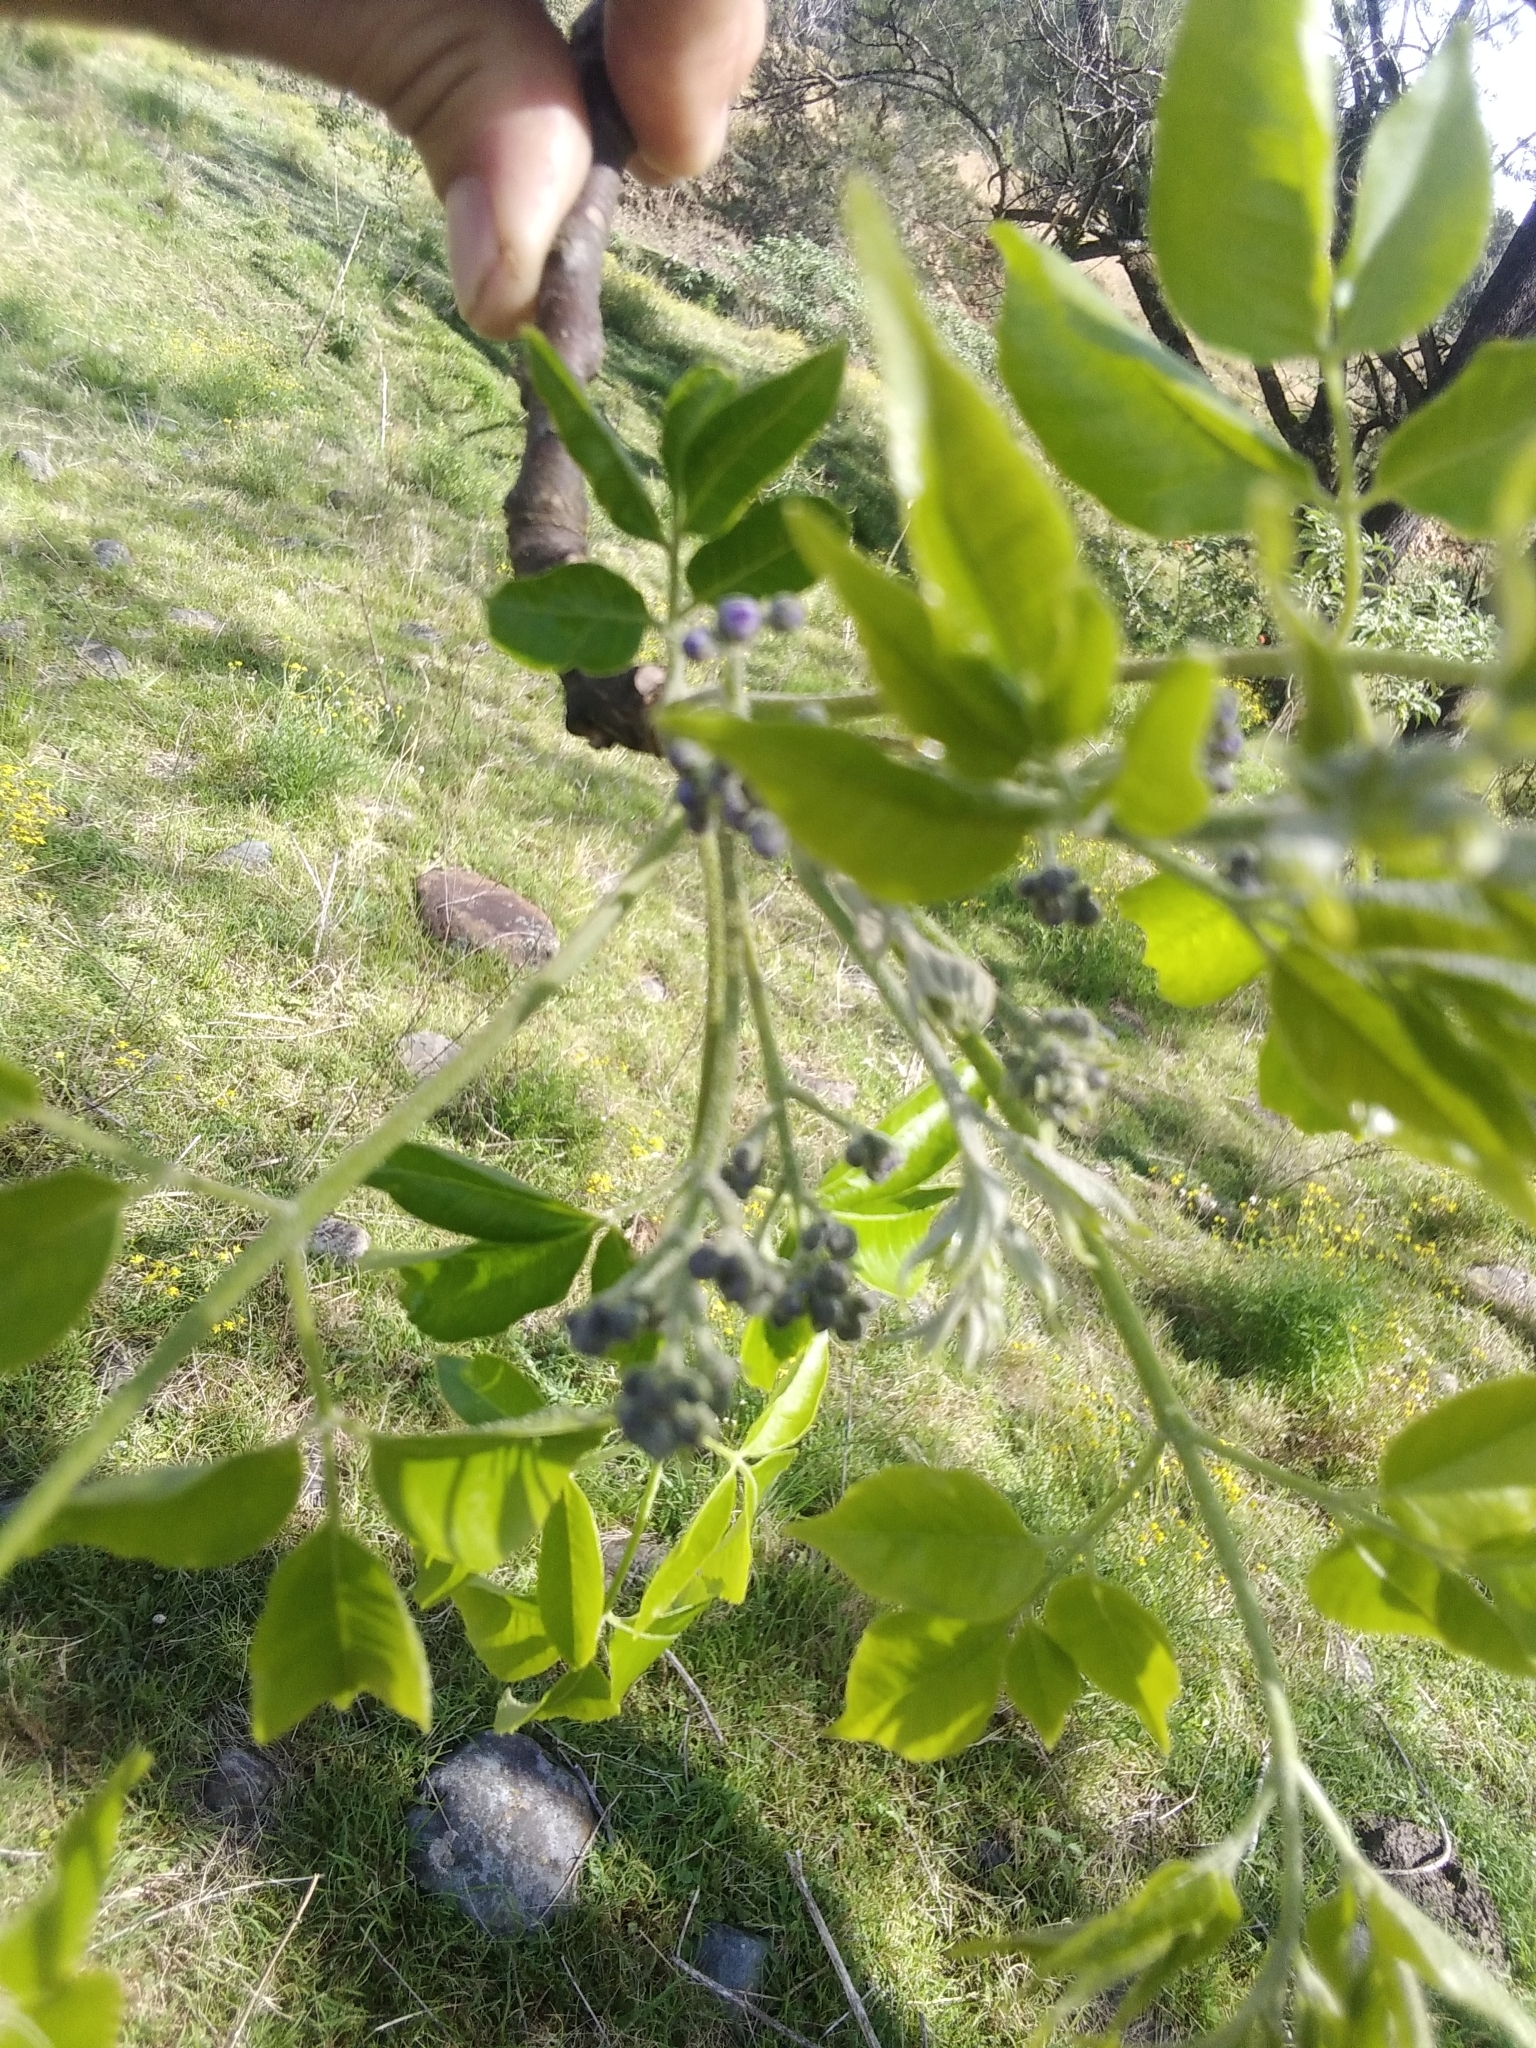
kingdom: Plantae
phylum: Tracheophyta
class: Magnoliopsida
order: Sapindales
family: Meliaceae
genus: Melia
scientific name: Melia azedarach
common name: Chinaberrytree
